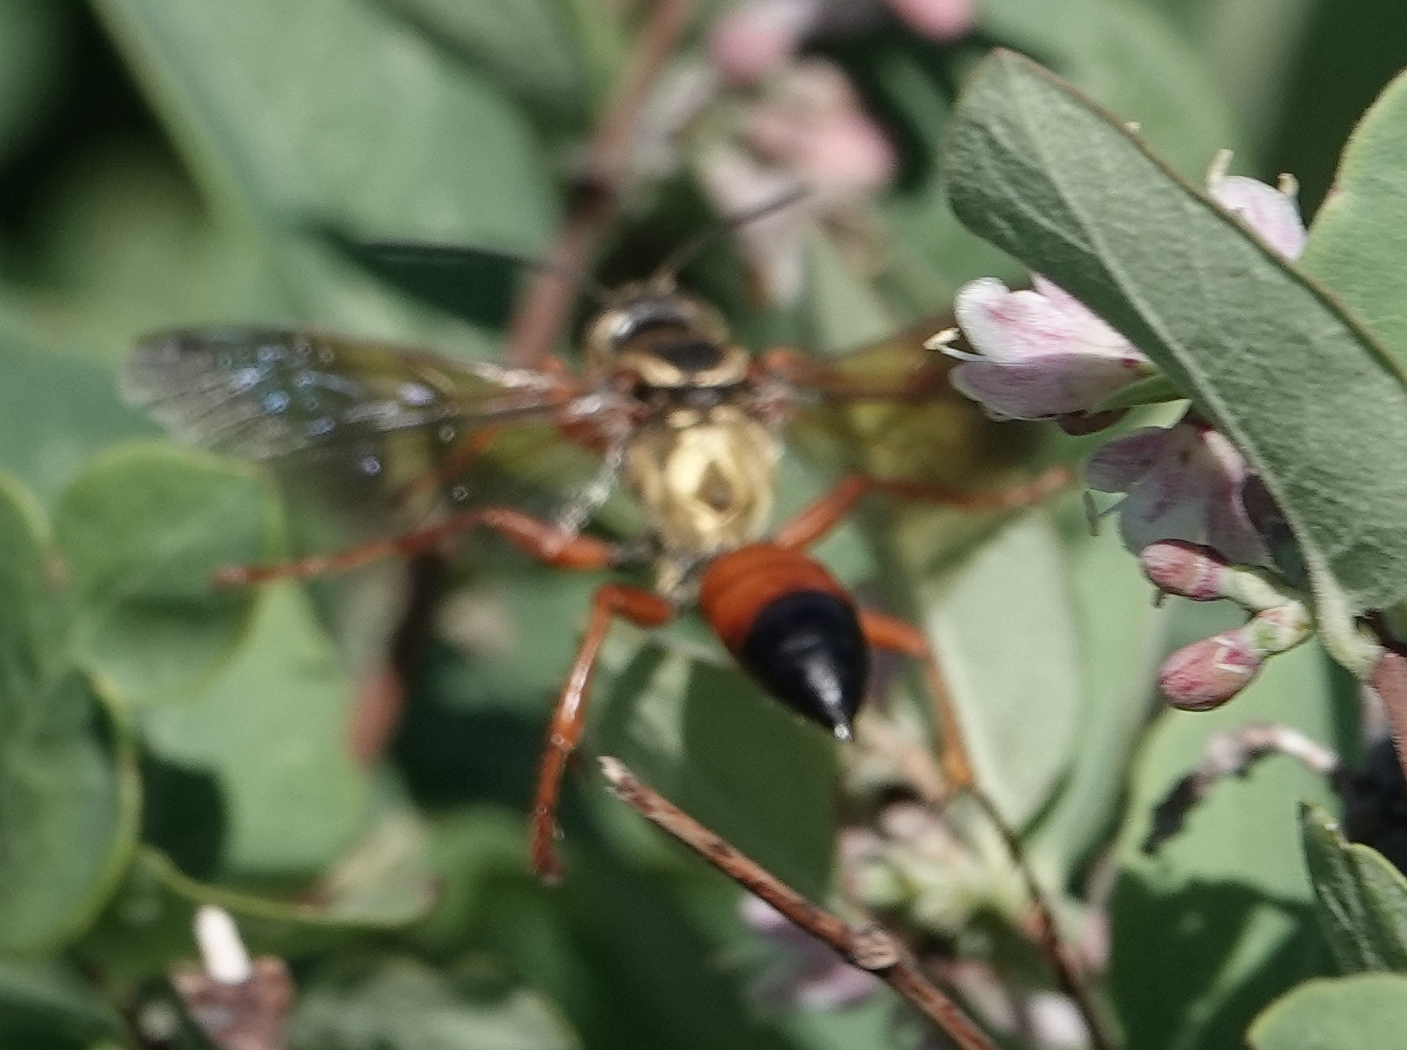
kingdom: Animalia
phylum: Arthropoda
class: Insecta
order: Hymenoptera
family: Sphecidae
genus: Sphex
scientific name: Sphex ichneumoneus
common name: Great golden digger wasp
